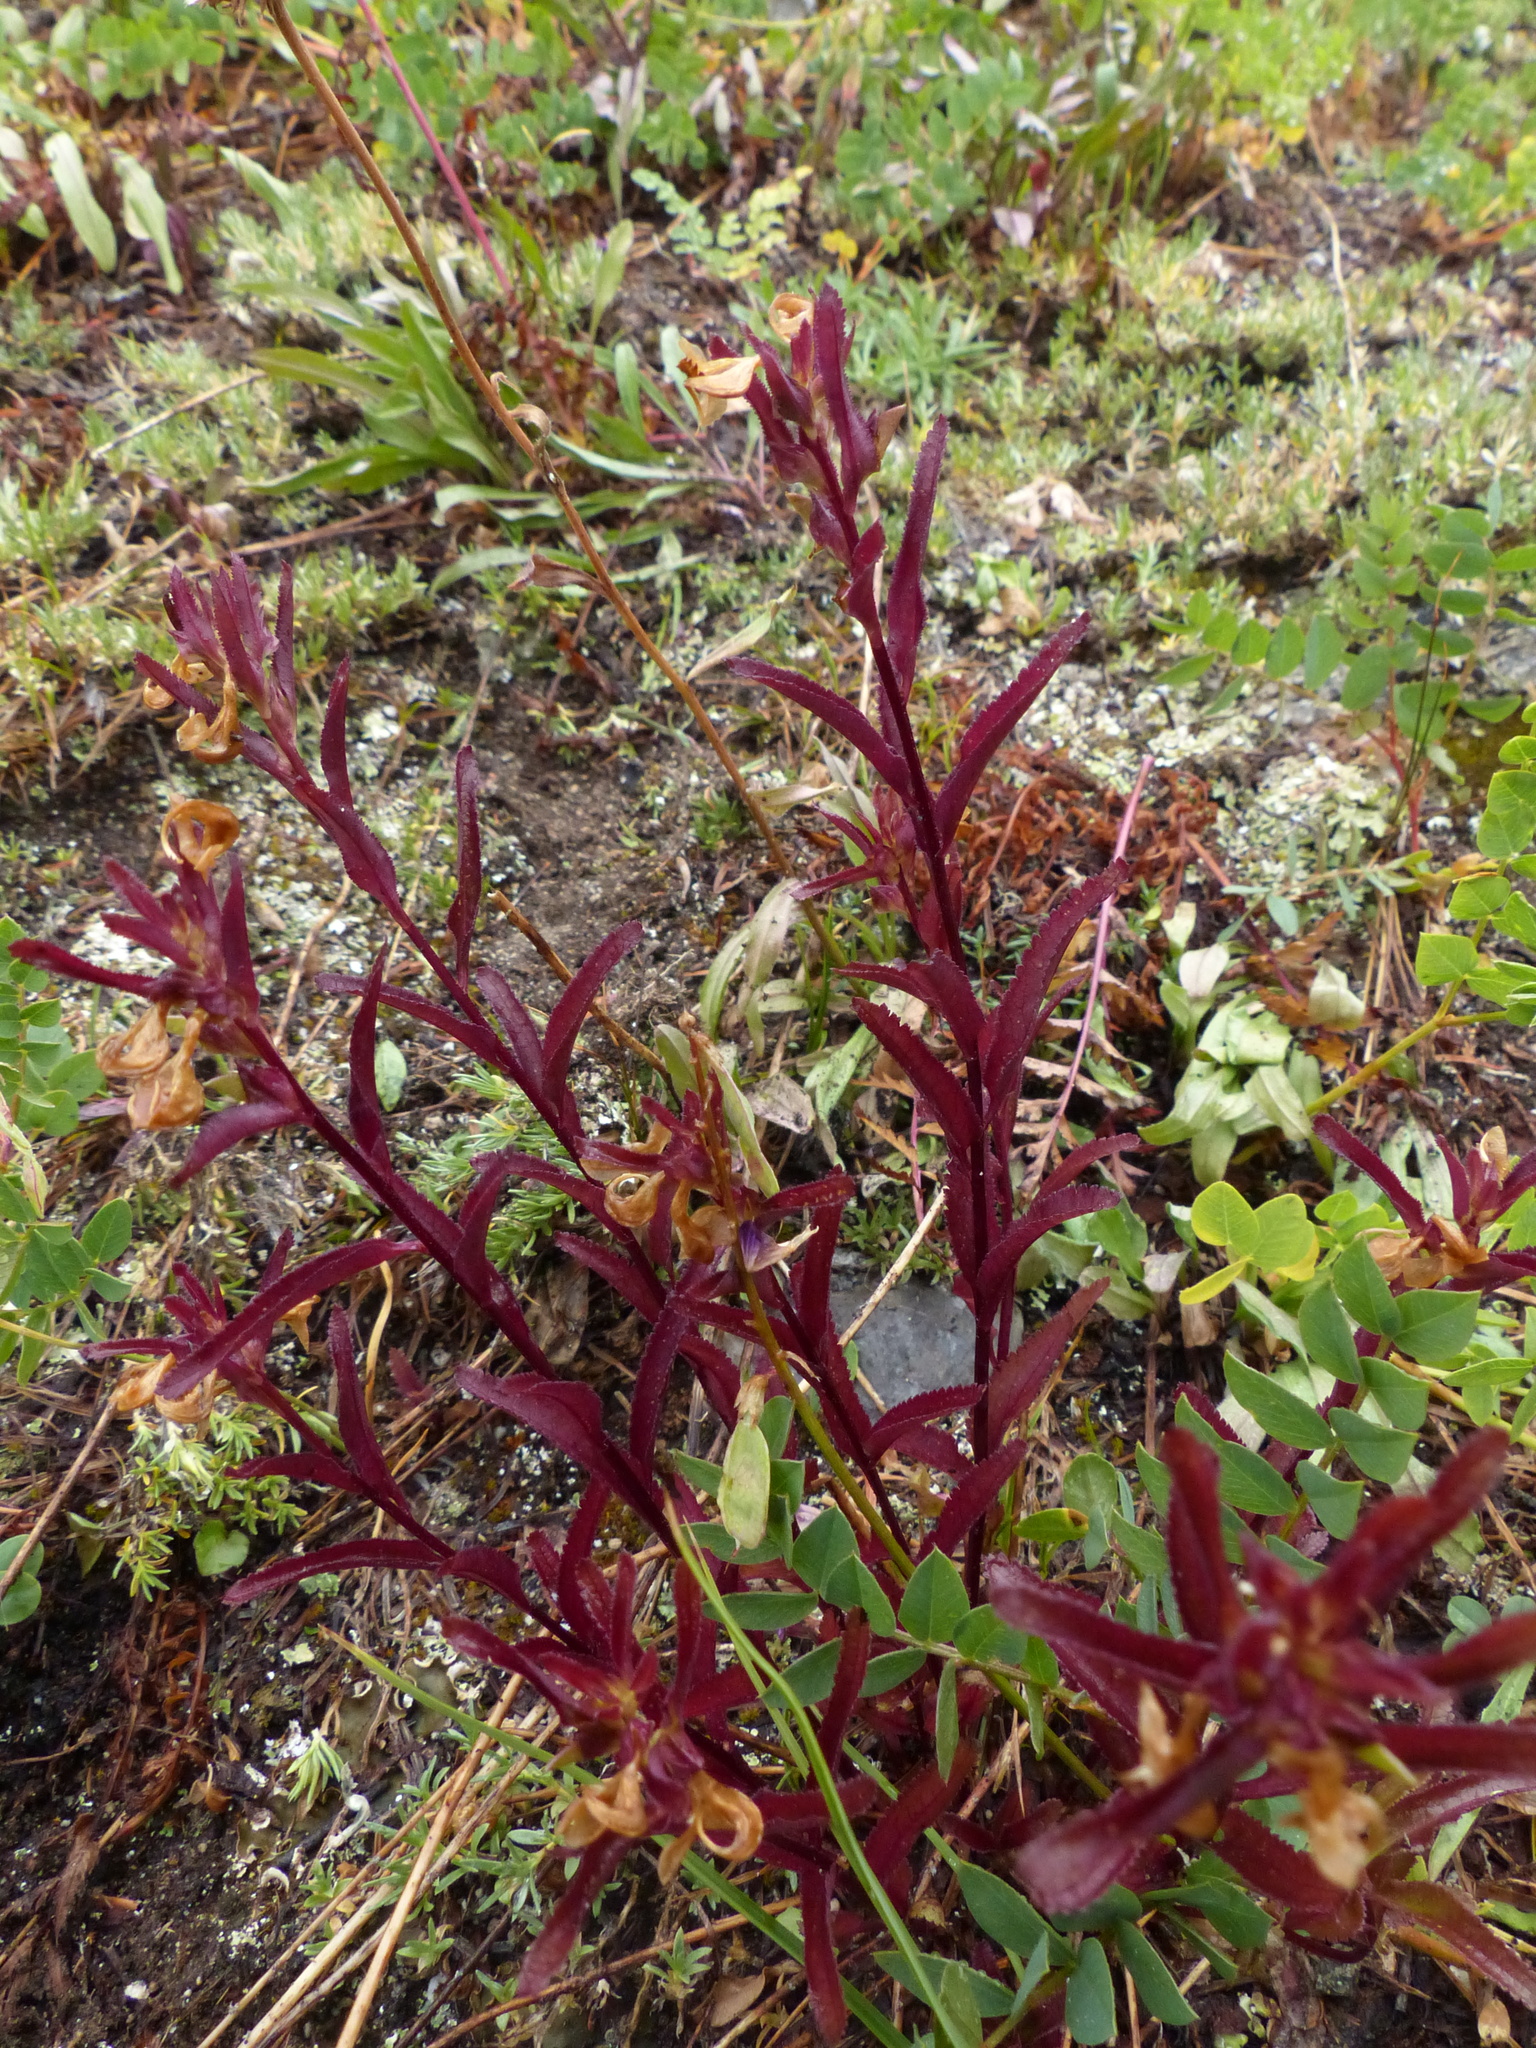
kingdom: Plantae
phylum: Tracheophyta
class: Magnoliopsida
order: Lamiales
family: Orobanchaceae
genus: Pedicularis
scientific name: Pedicularis racemosa
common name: Leafy lousewort
